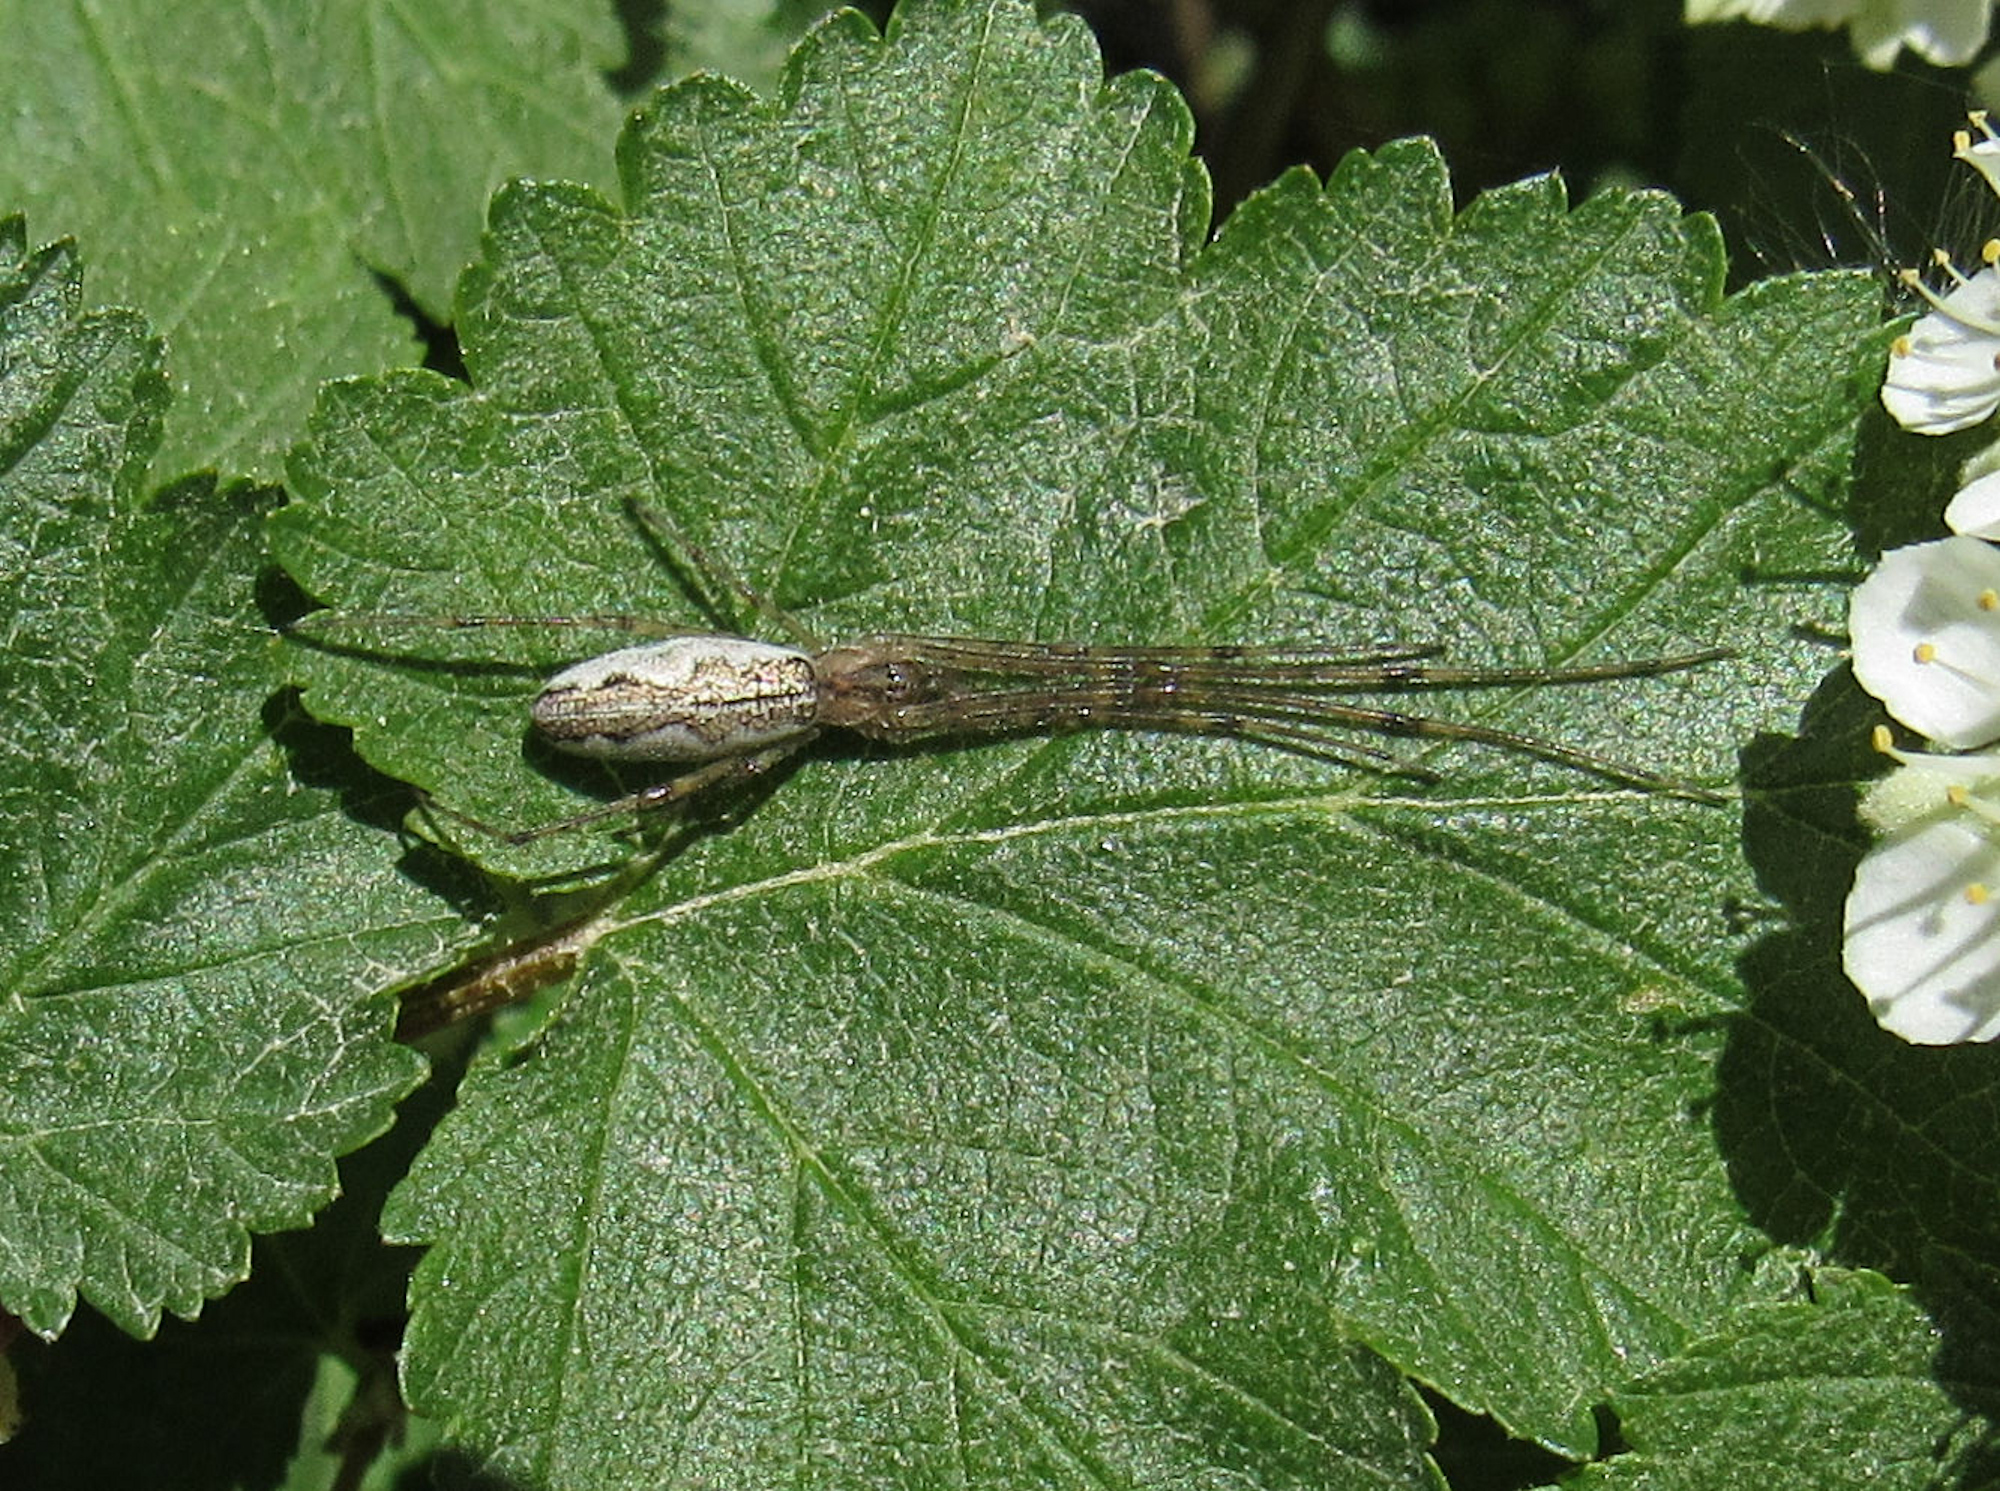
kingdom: Animalia
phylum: Arthropoda
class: Arachnida
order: Araneae
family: Tetragnathidae
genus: Tetragnatha
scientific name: Tetragnatha
